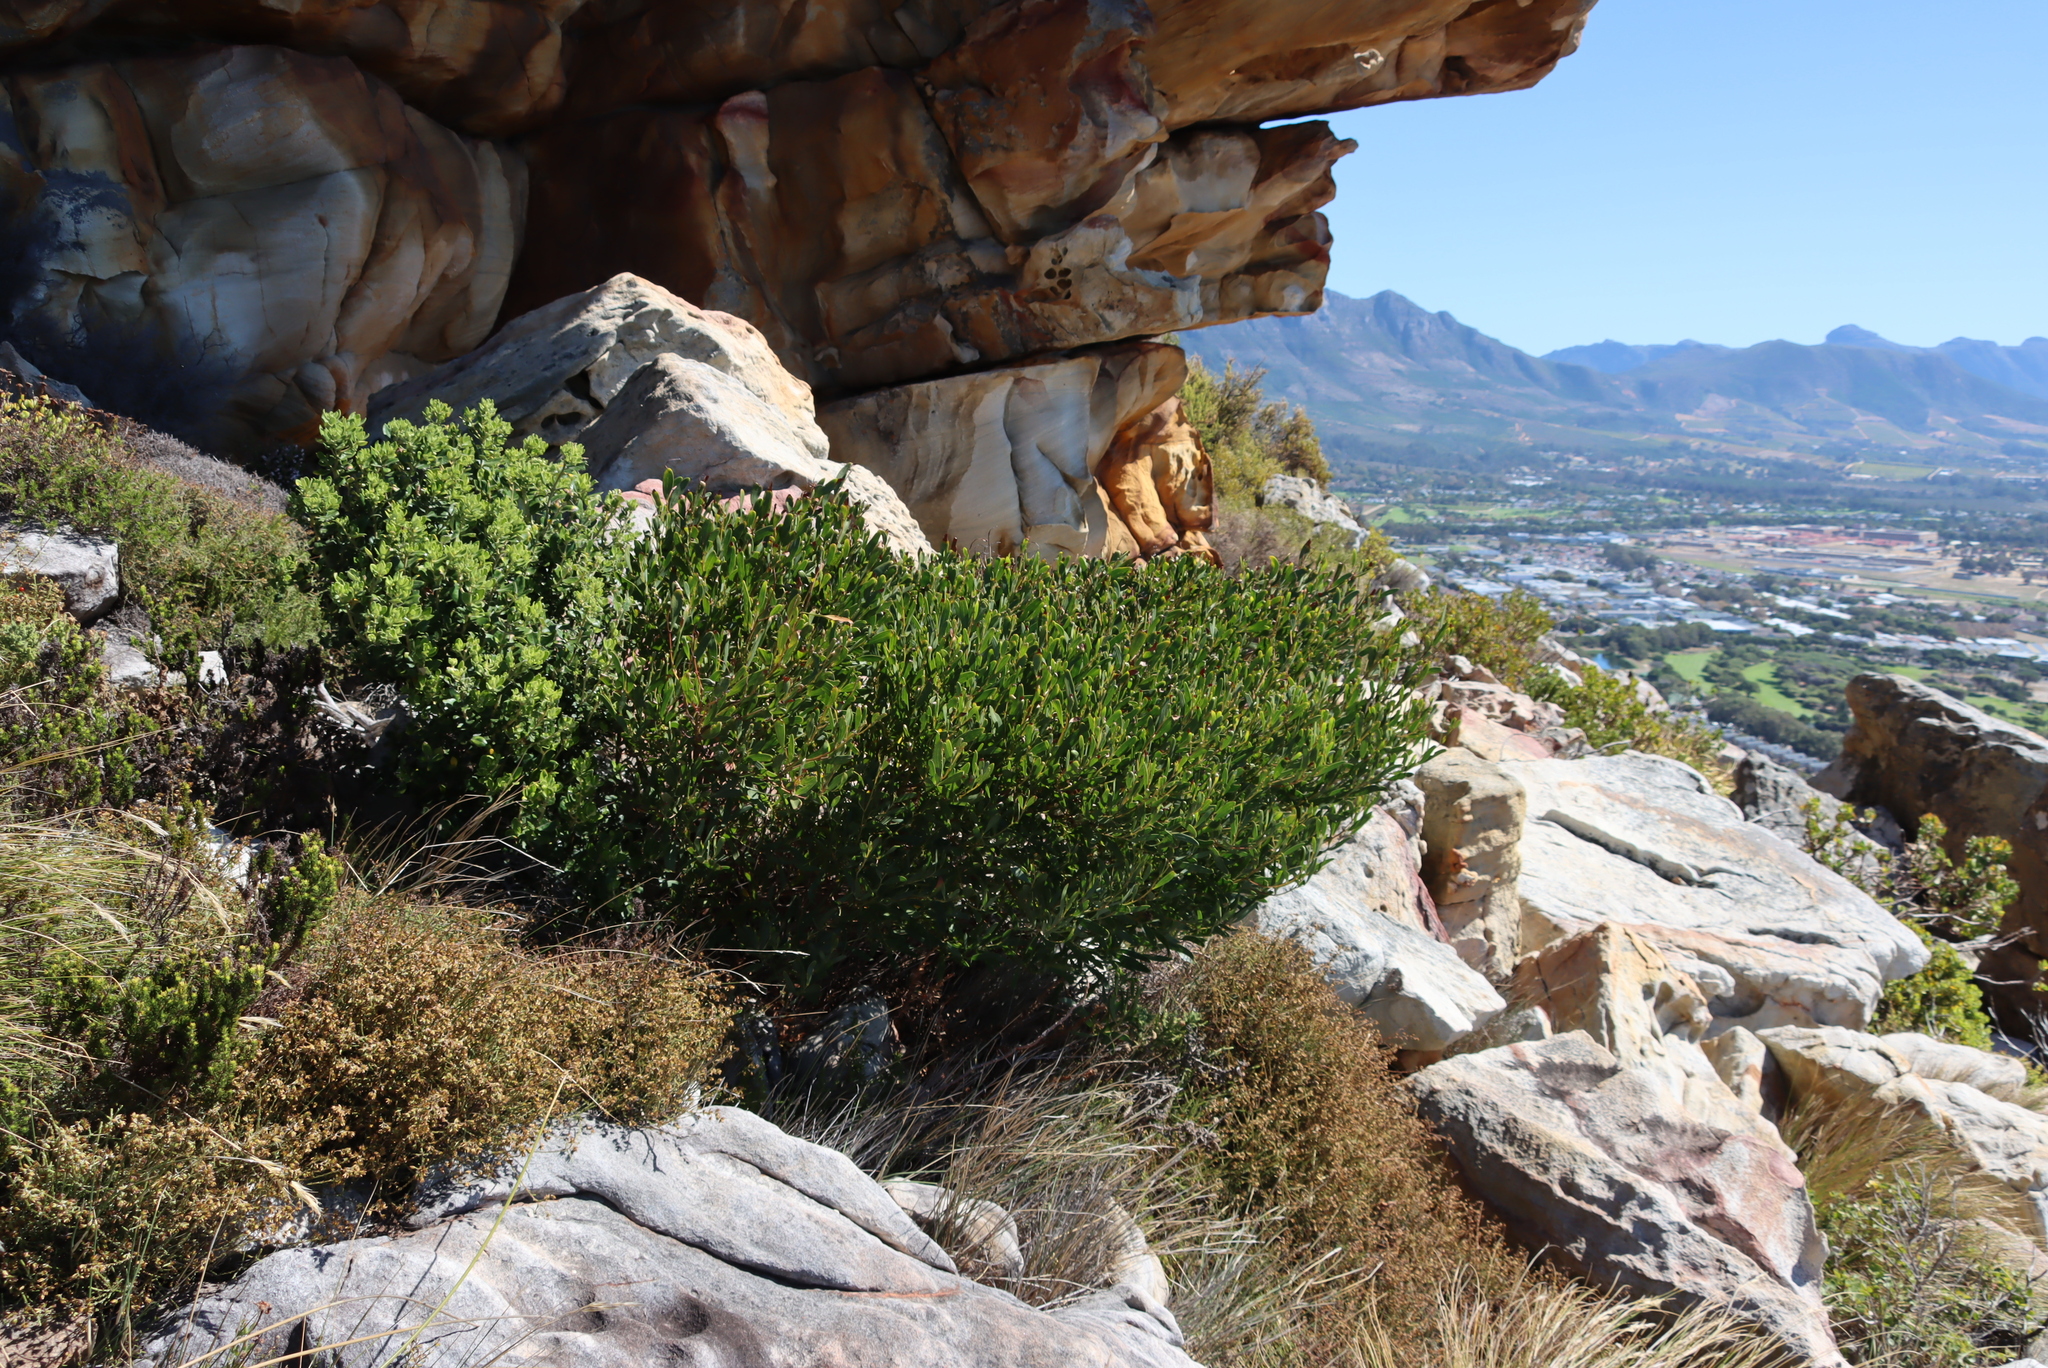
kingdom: Plantae
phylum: Tracheophyta
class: Magnoliopsida
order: Fabales
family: Fabaceae
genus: Acacia
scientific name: Acacia cyclops
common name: Coastal wattle
